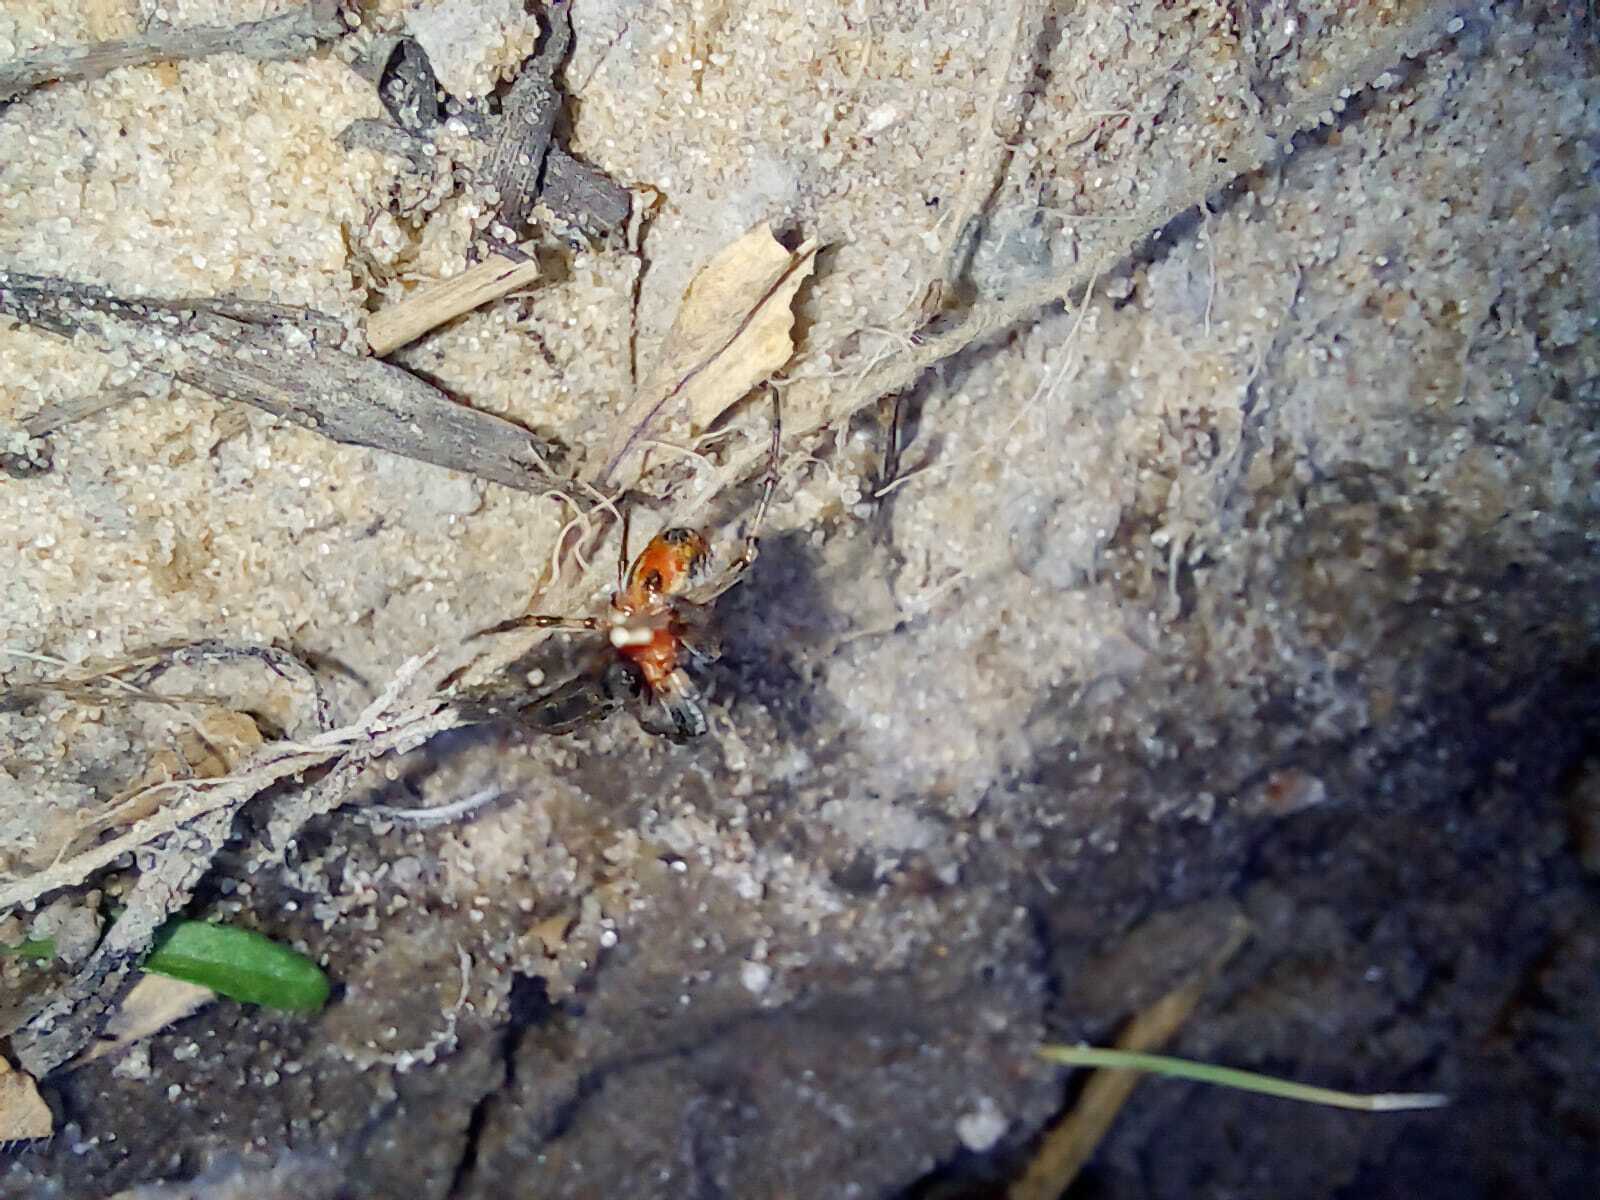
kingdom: Animalia
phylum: Arthropoda
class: Arachnida
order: Araneae
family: Araneidae
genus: Alpaida
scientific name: Alpaida versicolor
